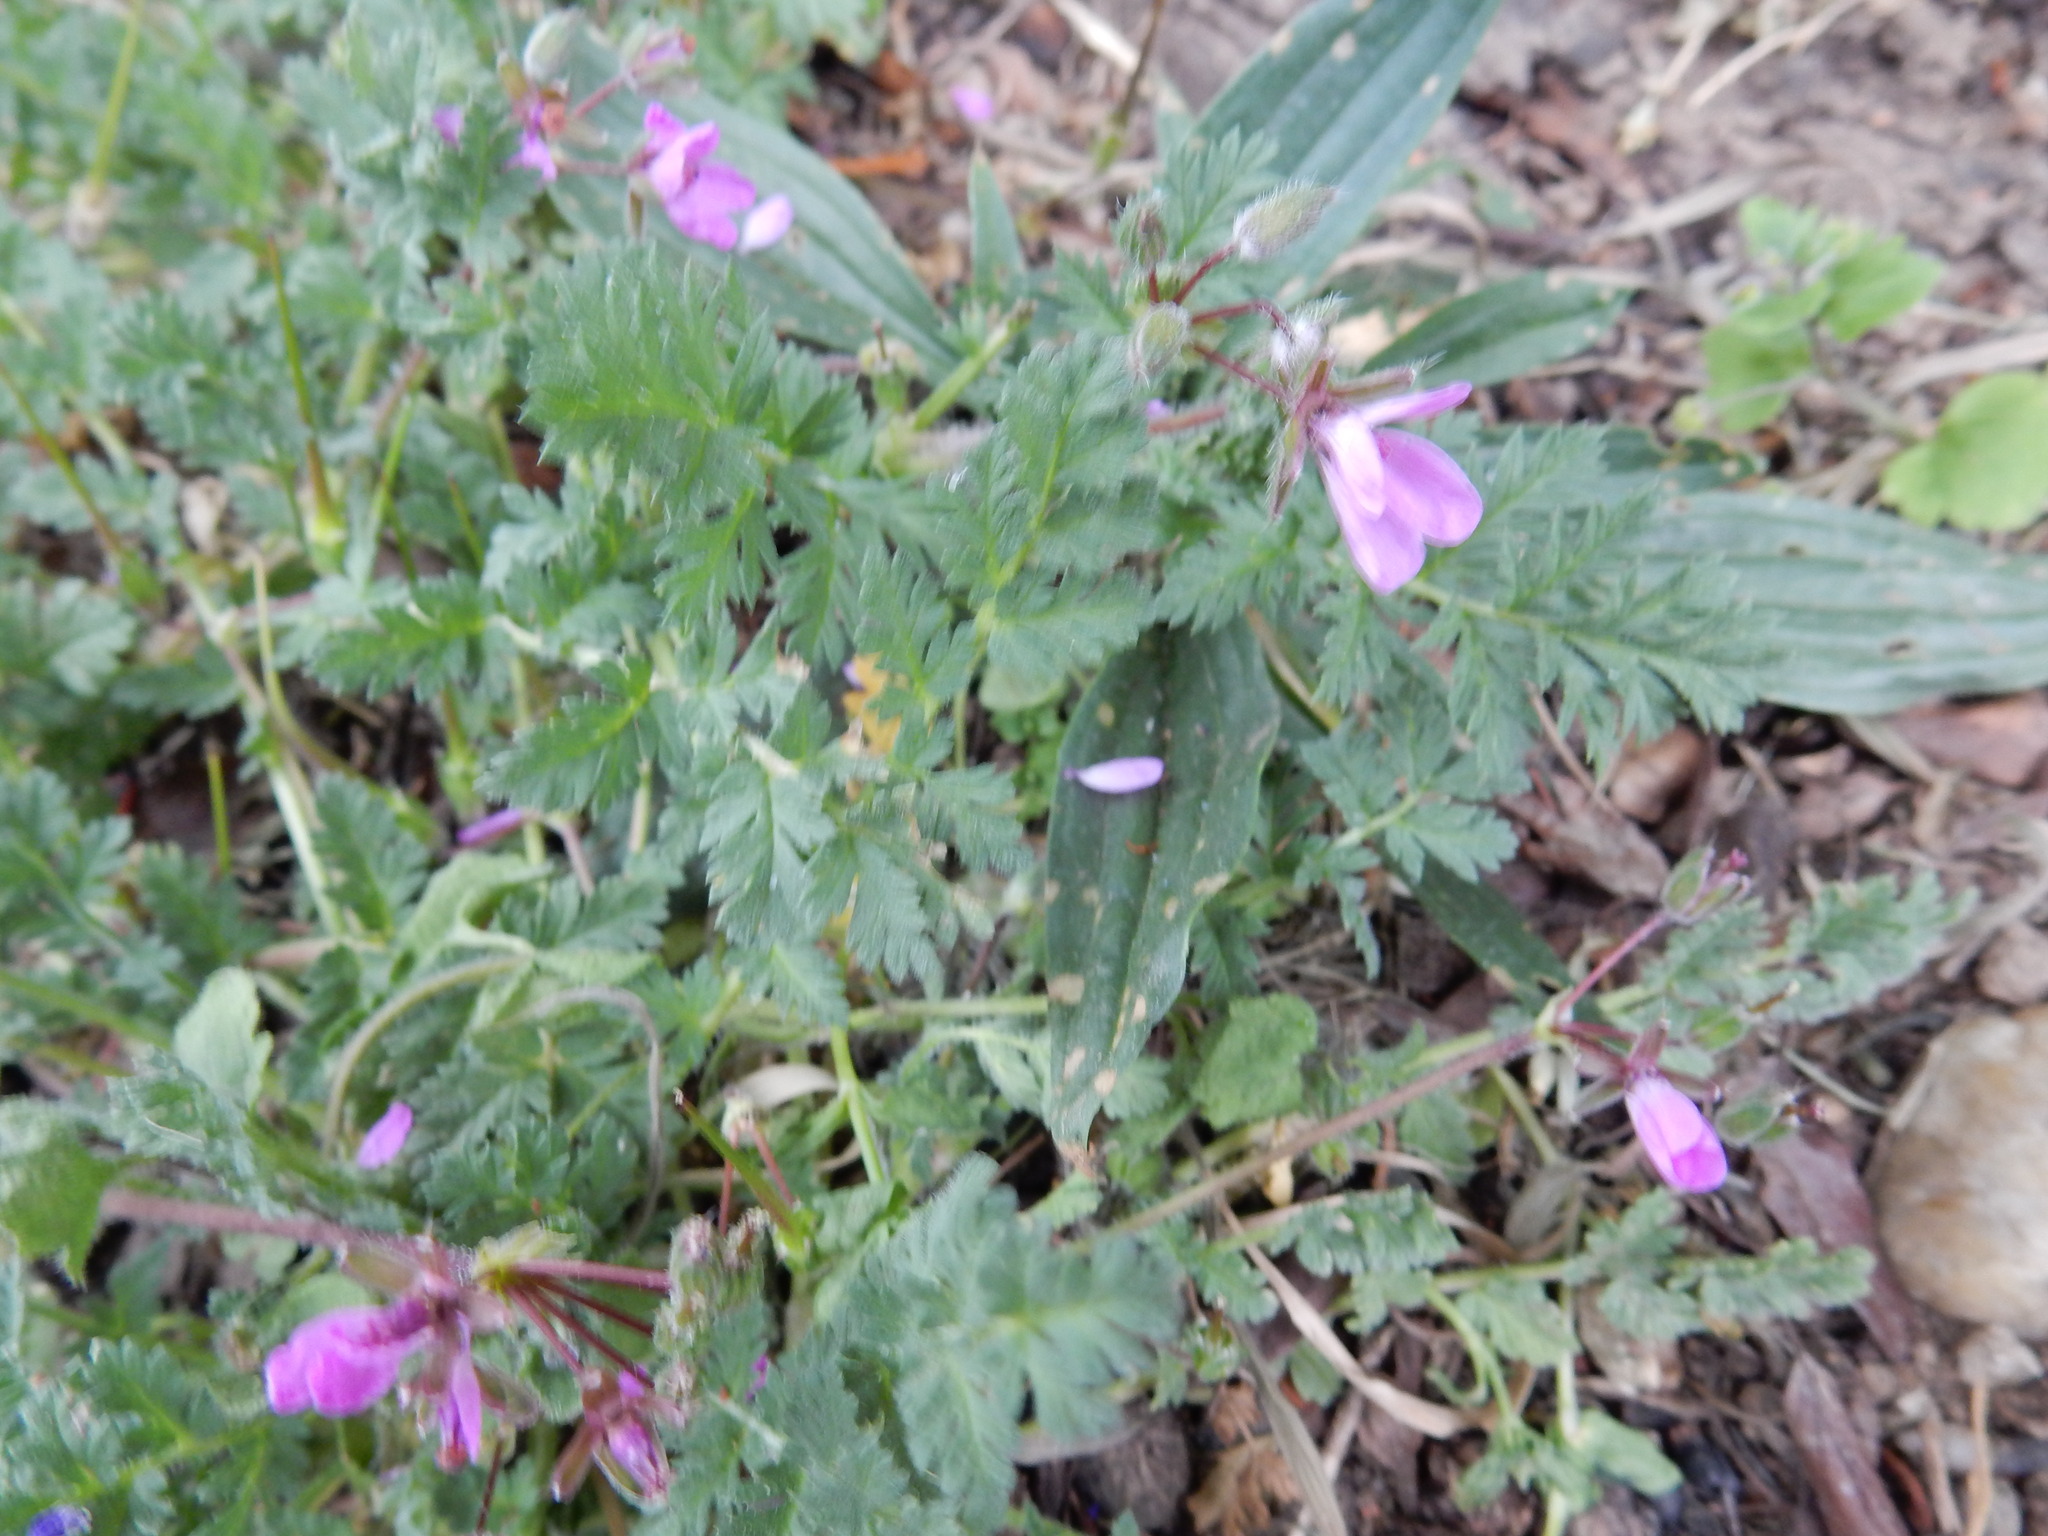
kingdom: Plantae
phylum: Tracheophyta
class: Magnoliopsida
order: Geraniales
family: Geraniaceae
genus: Erodium
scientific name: Erodium cicutarium
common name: Common stork's-bill
